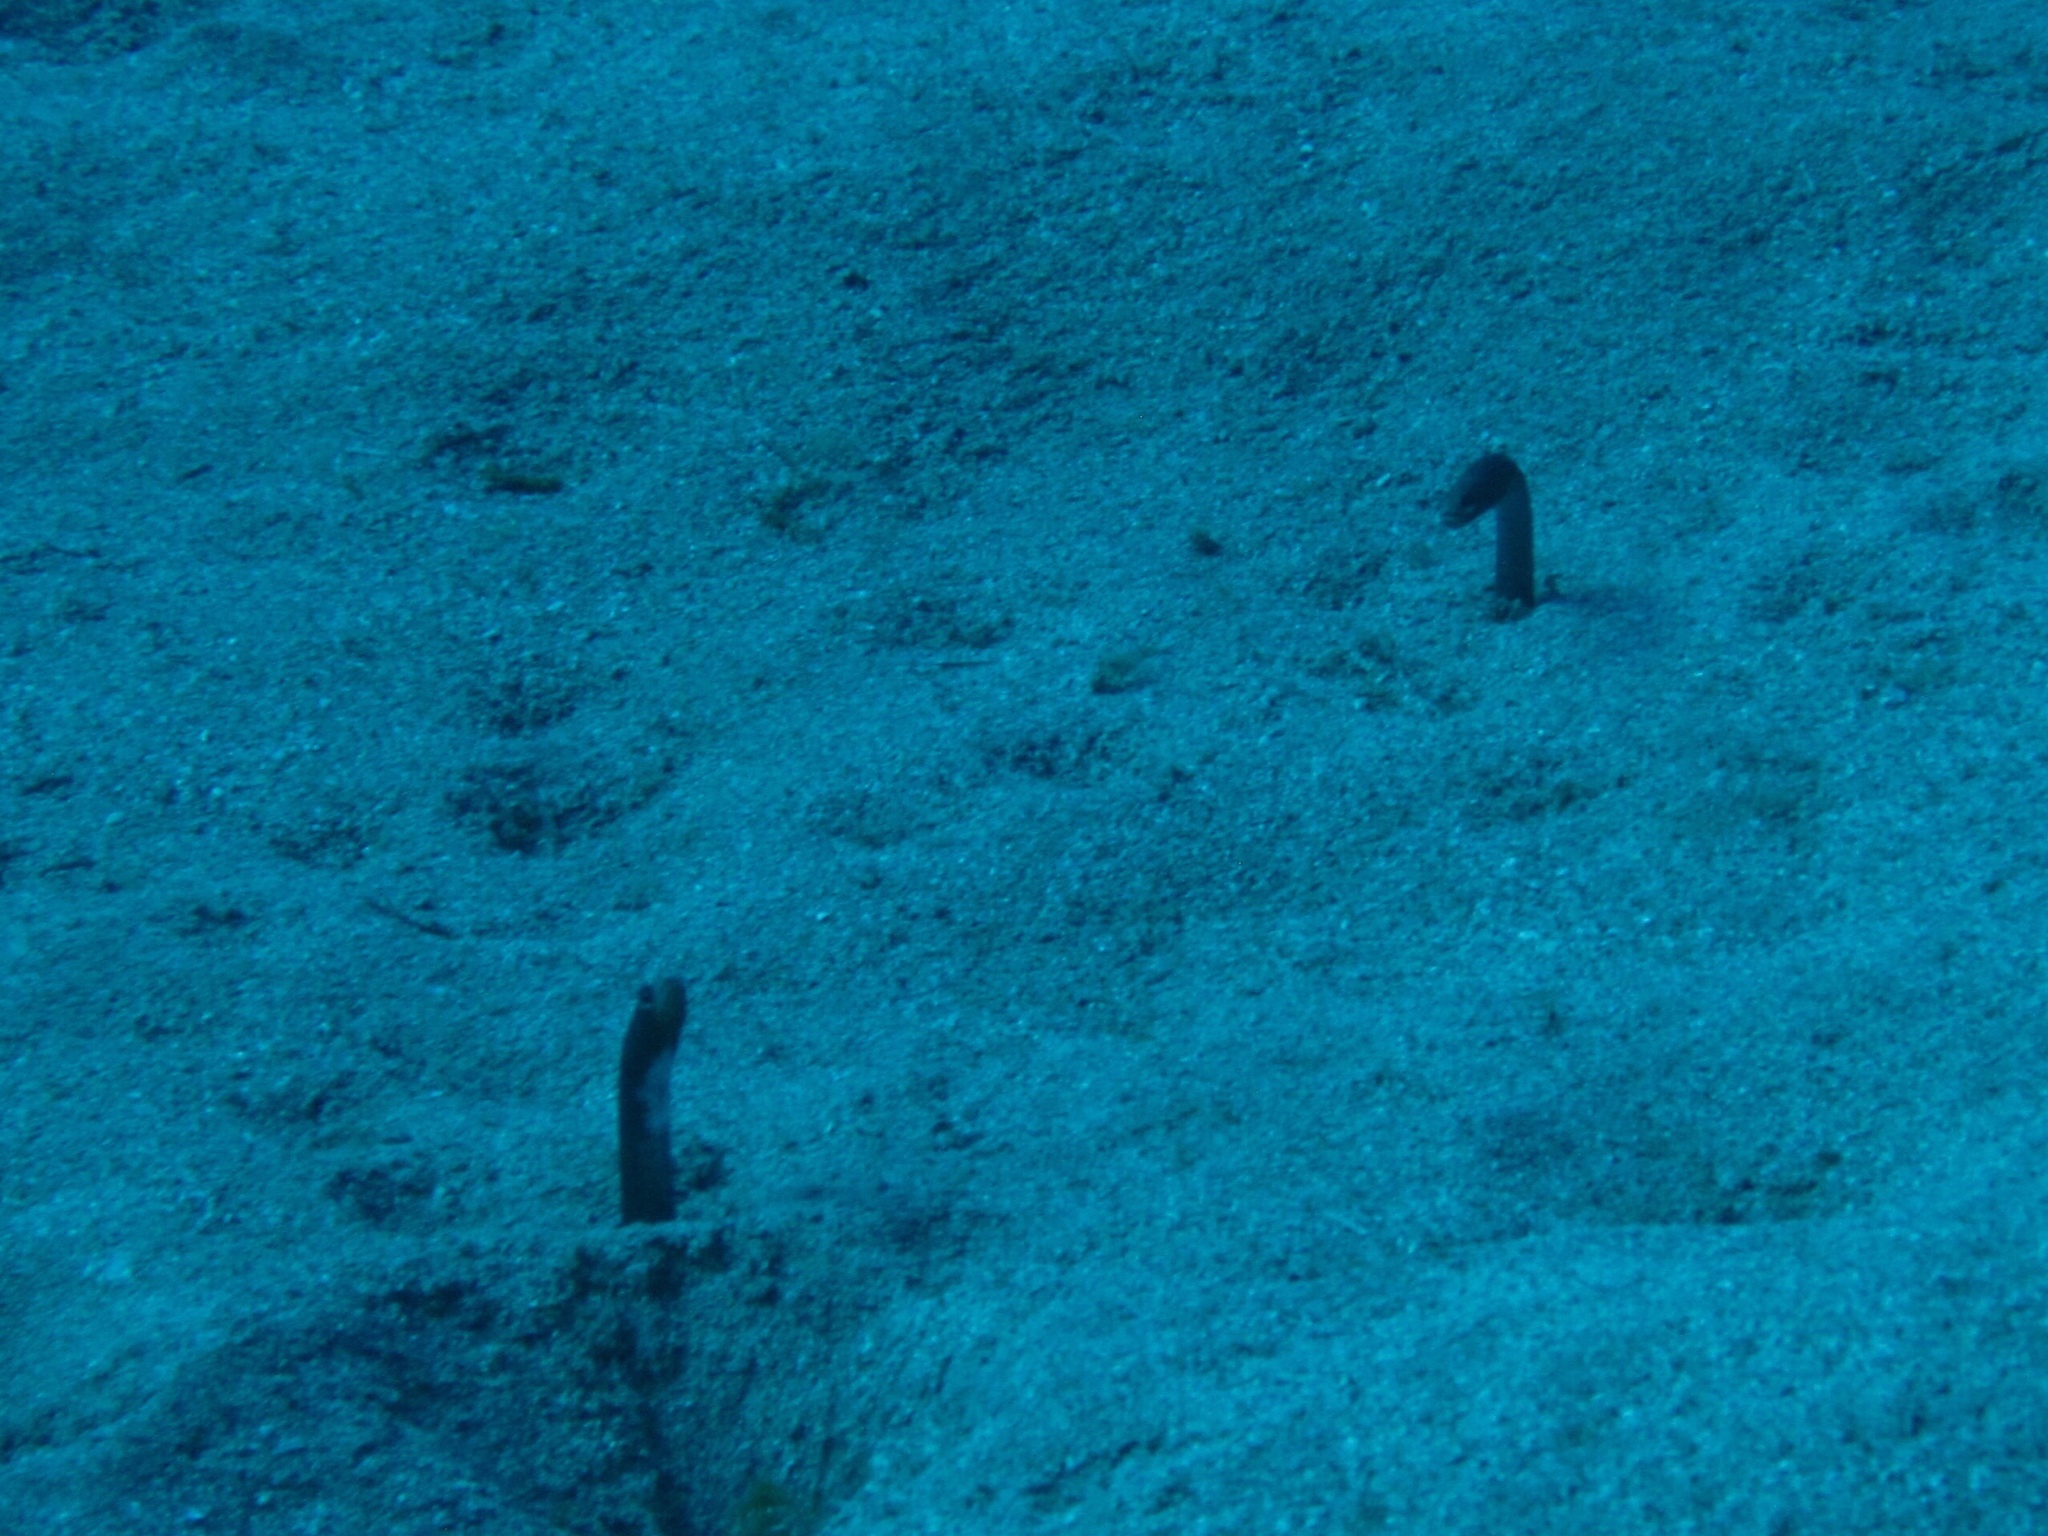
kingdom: Animalia
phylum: Chordata
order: Anguilliformes
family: Congridae
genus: Heteroconger
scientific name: Heteroconger longissimus
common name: Garden eel
